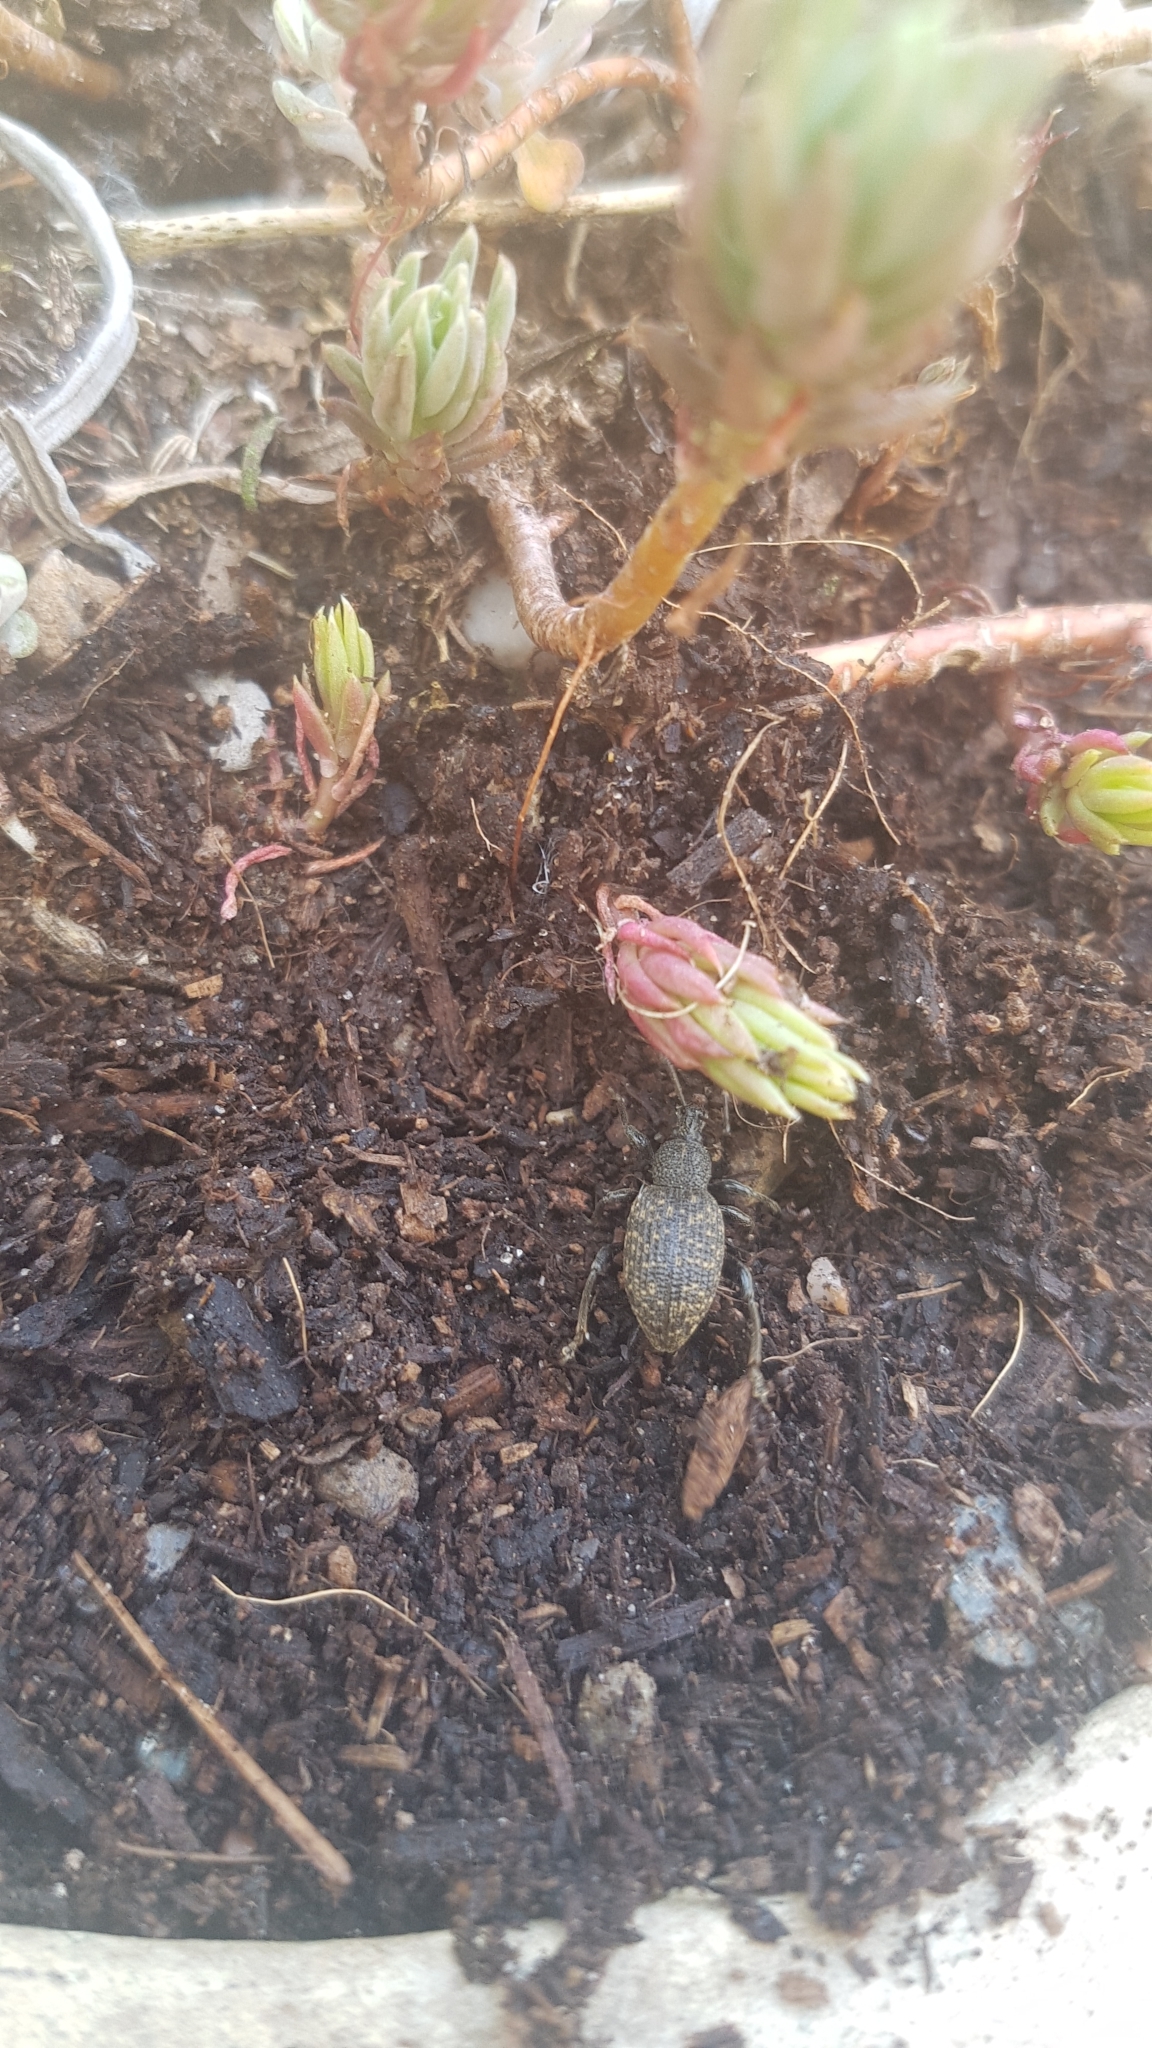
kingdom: Animalia
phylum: Arthropoda
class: Insecta
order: Coleoptera
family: Curculionidae
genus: Otiorhynchus
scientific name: Otiorhynchus sulcatus
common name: Black vine weevil
